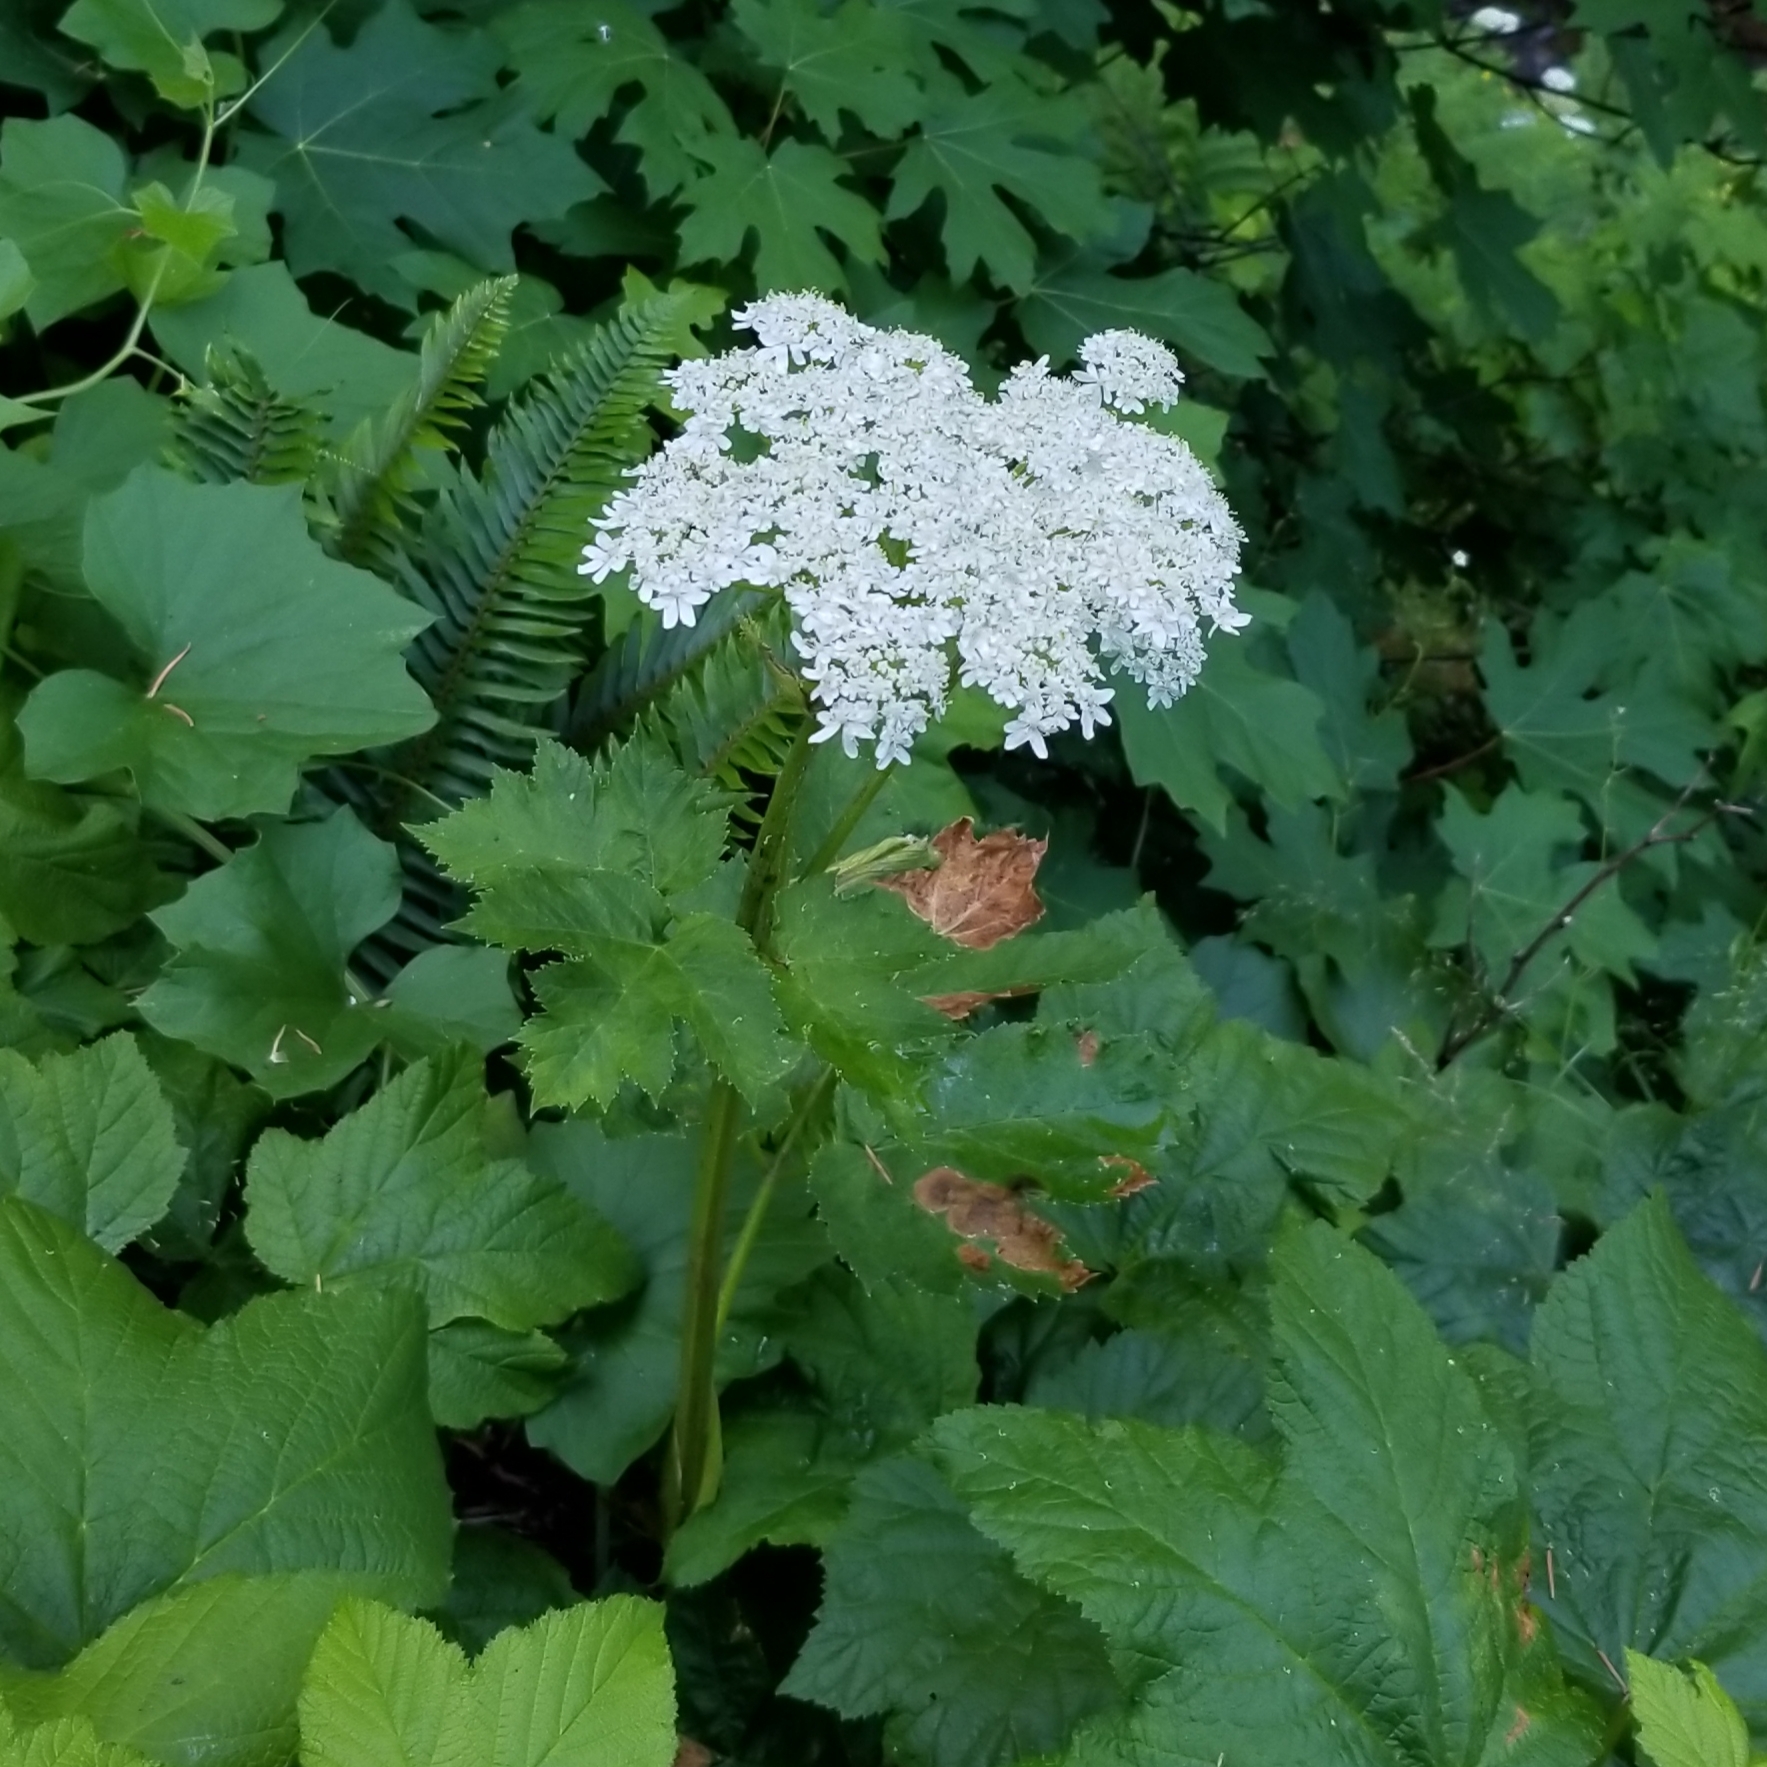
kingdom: Plantae
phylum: Tracheophyta
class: Magnoliopsida
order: Apiales
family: Apiaceae
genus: Heracleum
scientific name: Heracleum maximum
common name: American cow parsnip
